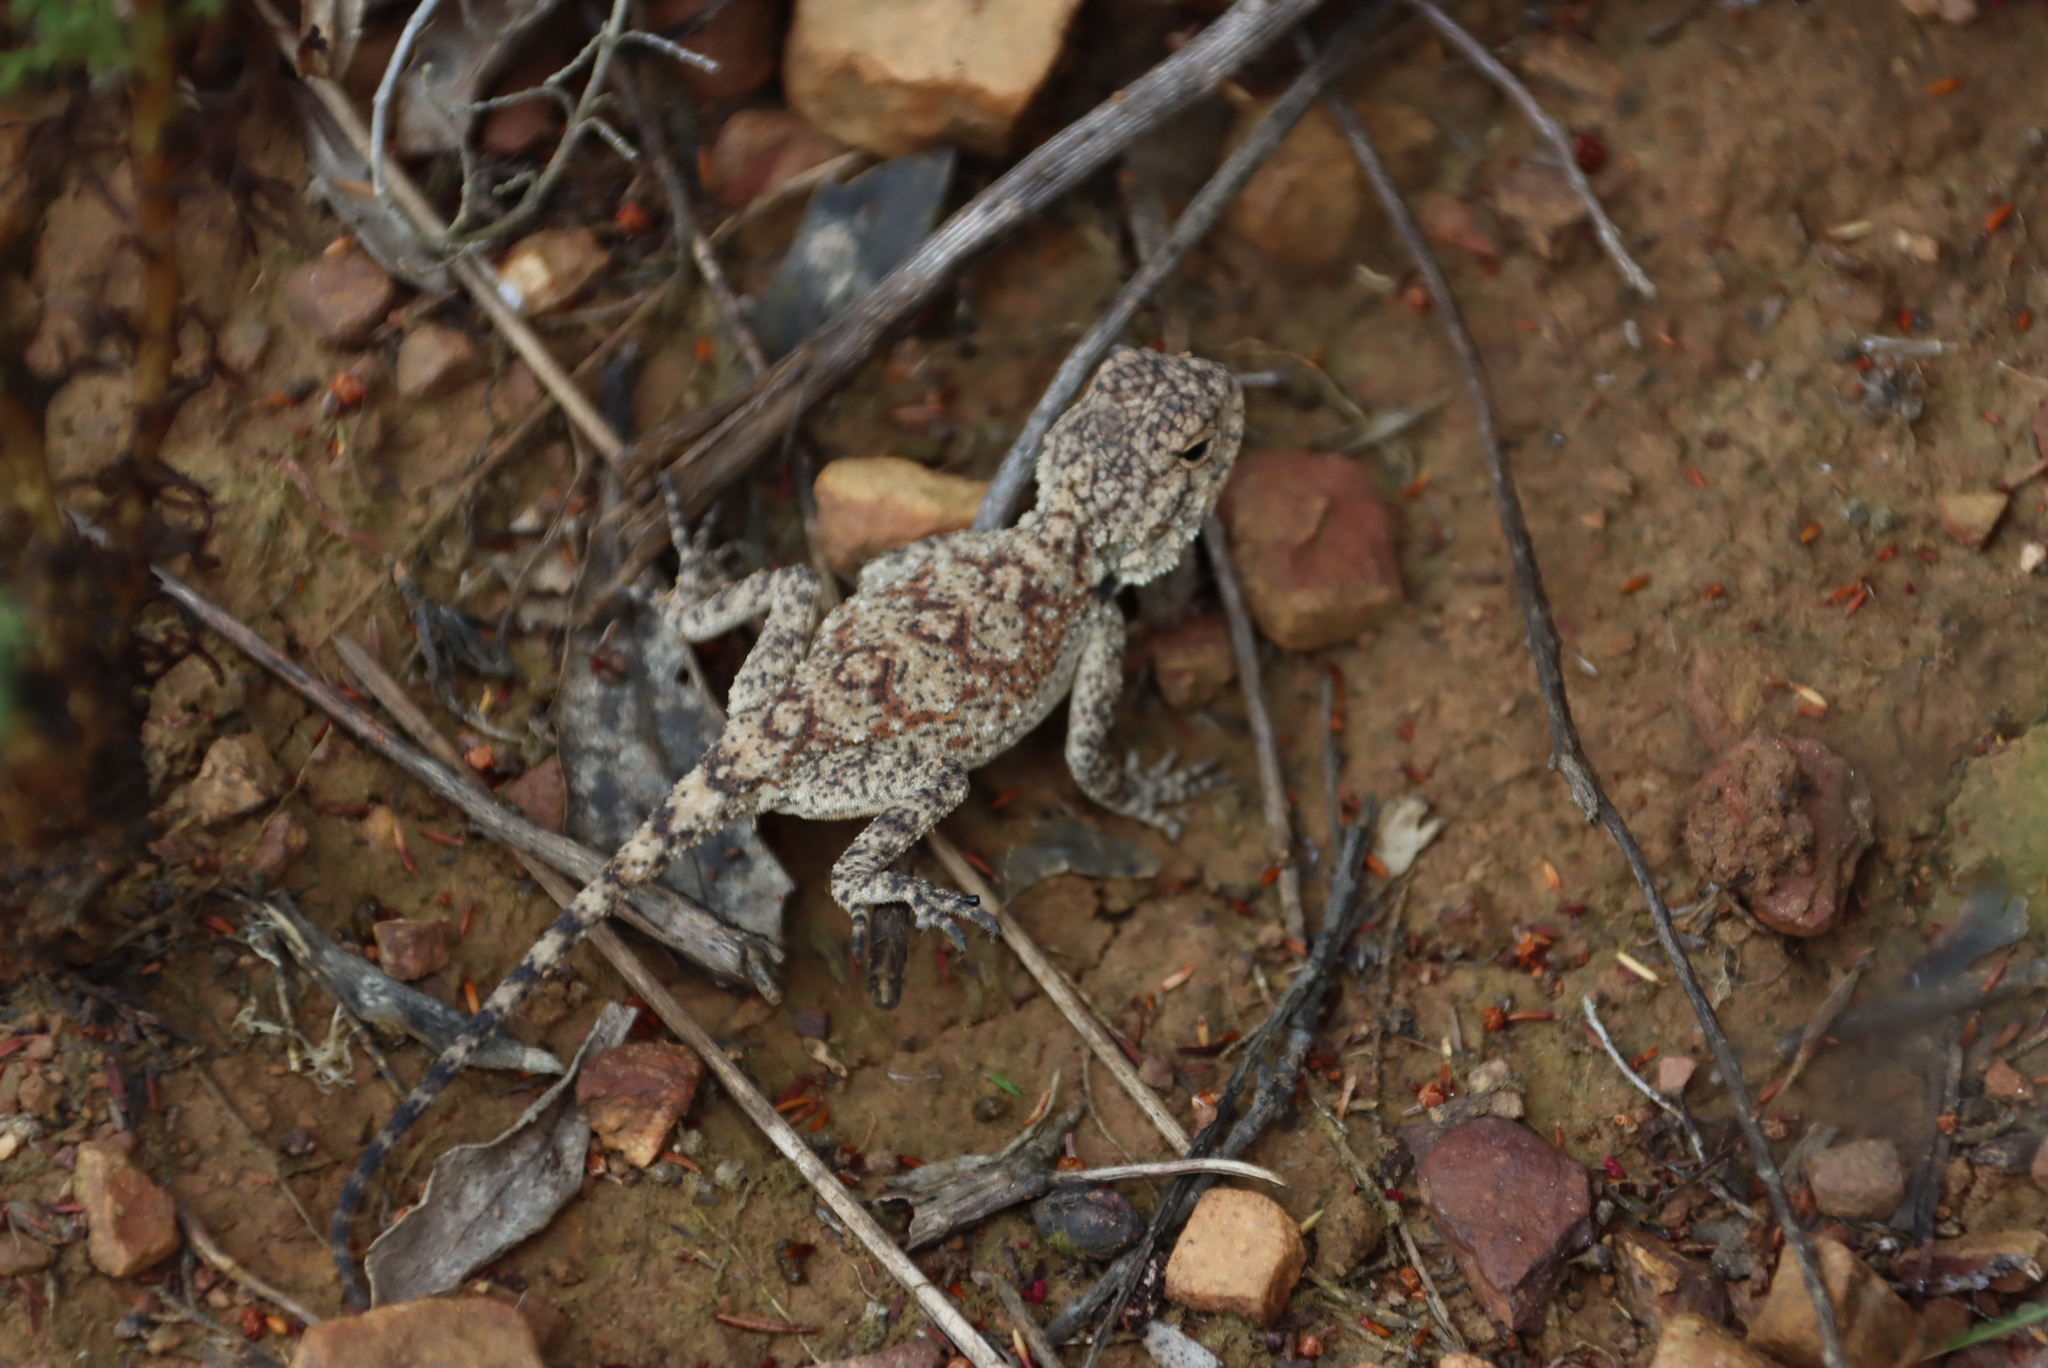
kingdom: Animalia
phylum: Chordata
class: Squamata
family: Agamidae
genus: Agama
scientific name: Agama atra
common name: Southern african rock agama
